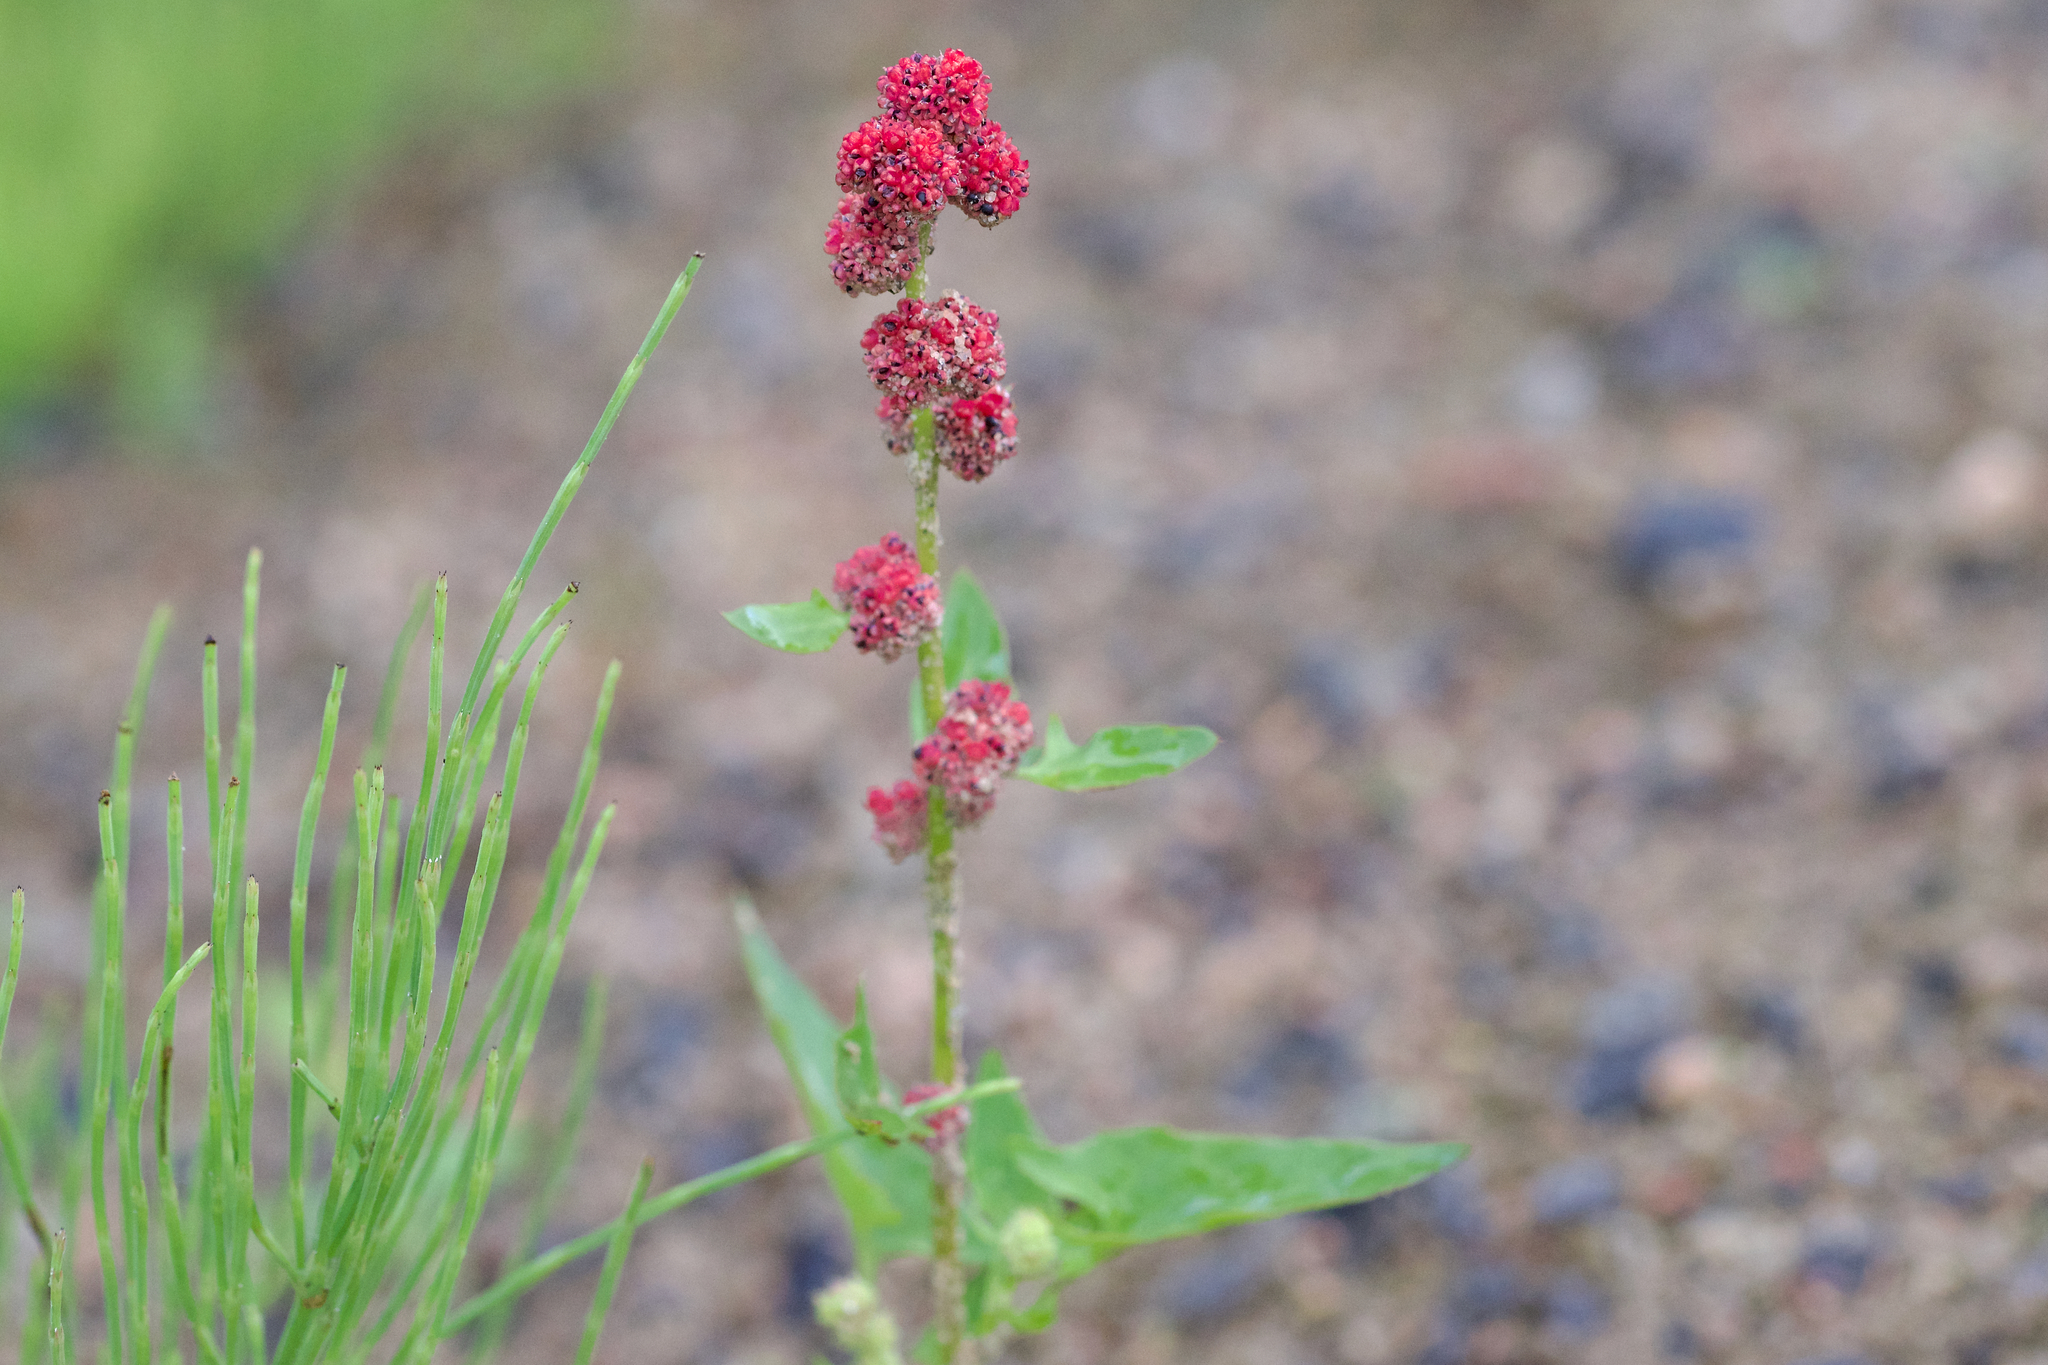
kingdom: Plantae
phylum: Tracheophyta
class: Magnoliopsida
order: Caryophyllales
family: Amaranthaceae
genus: Blitum
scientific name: Blitum capitatum
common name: Strawberry-blight
